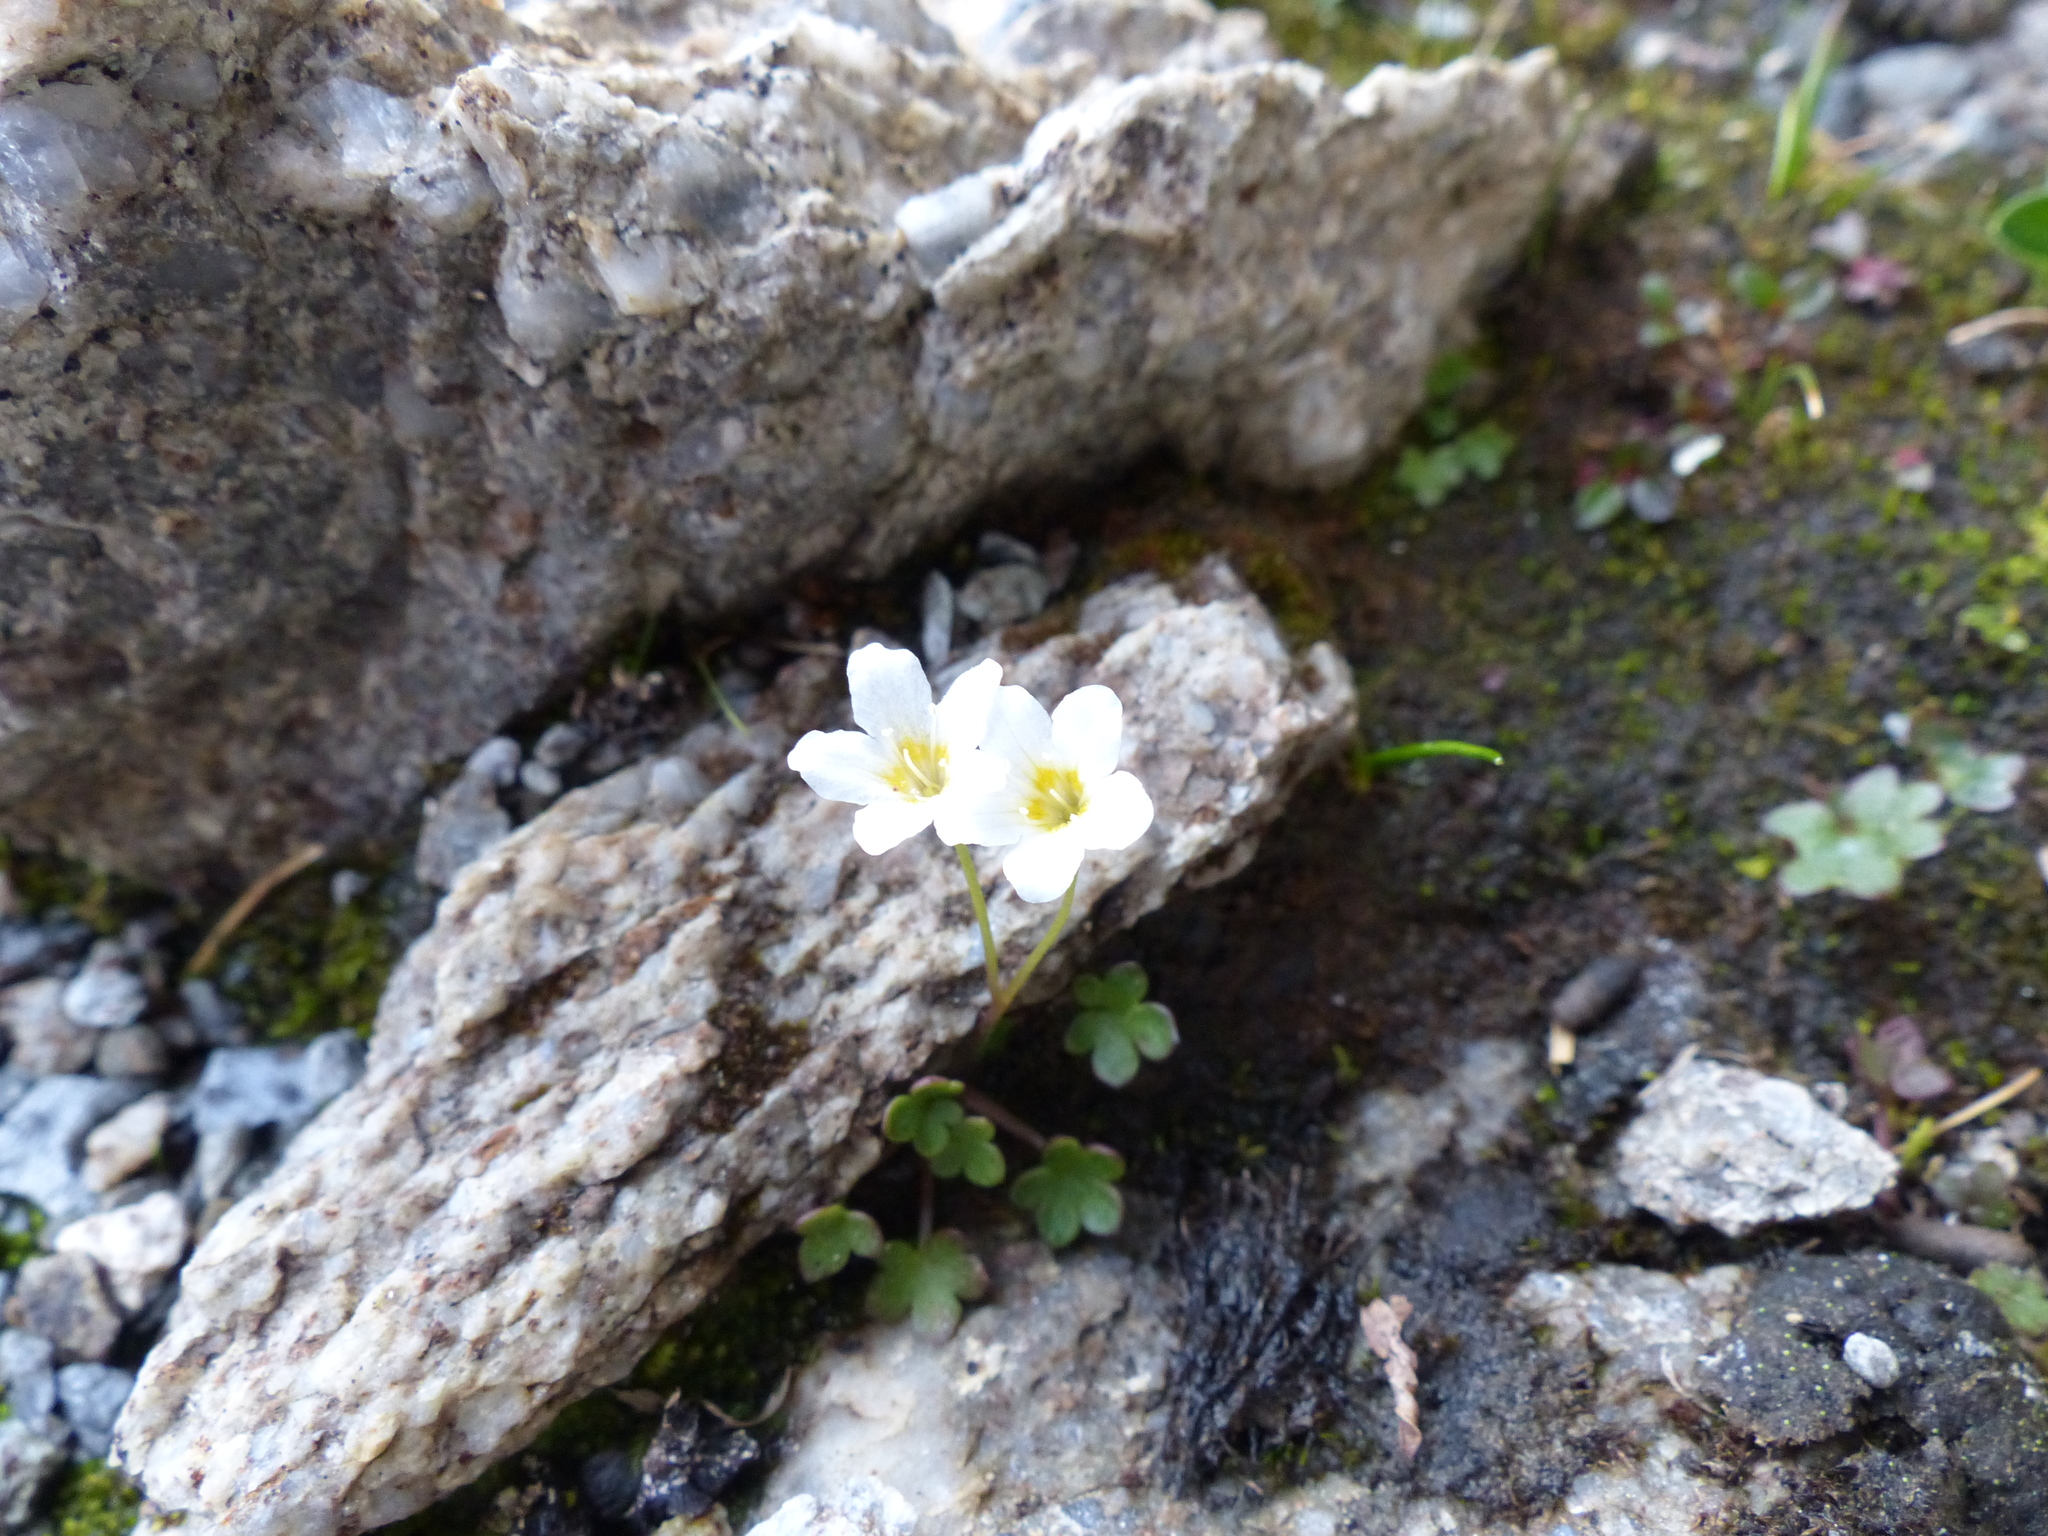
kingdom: Plantae
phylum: Tracheophyta
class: Magnoliopsida
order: Boraginales
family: Hydrophyllaceae
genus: Romanzoffia
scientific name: Romanzoffia sitchensis
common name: Sitka mistmaid
